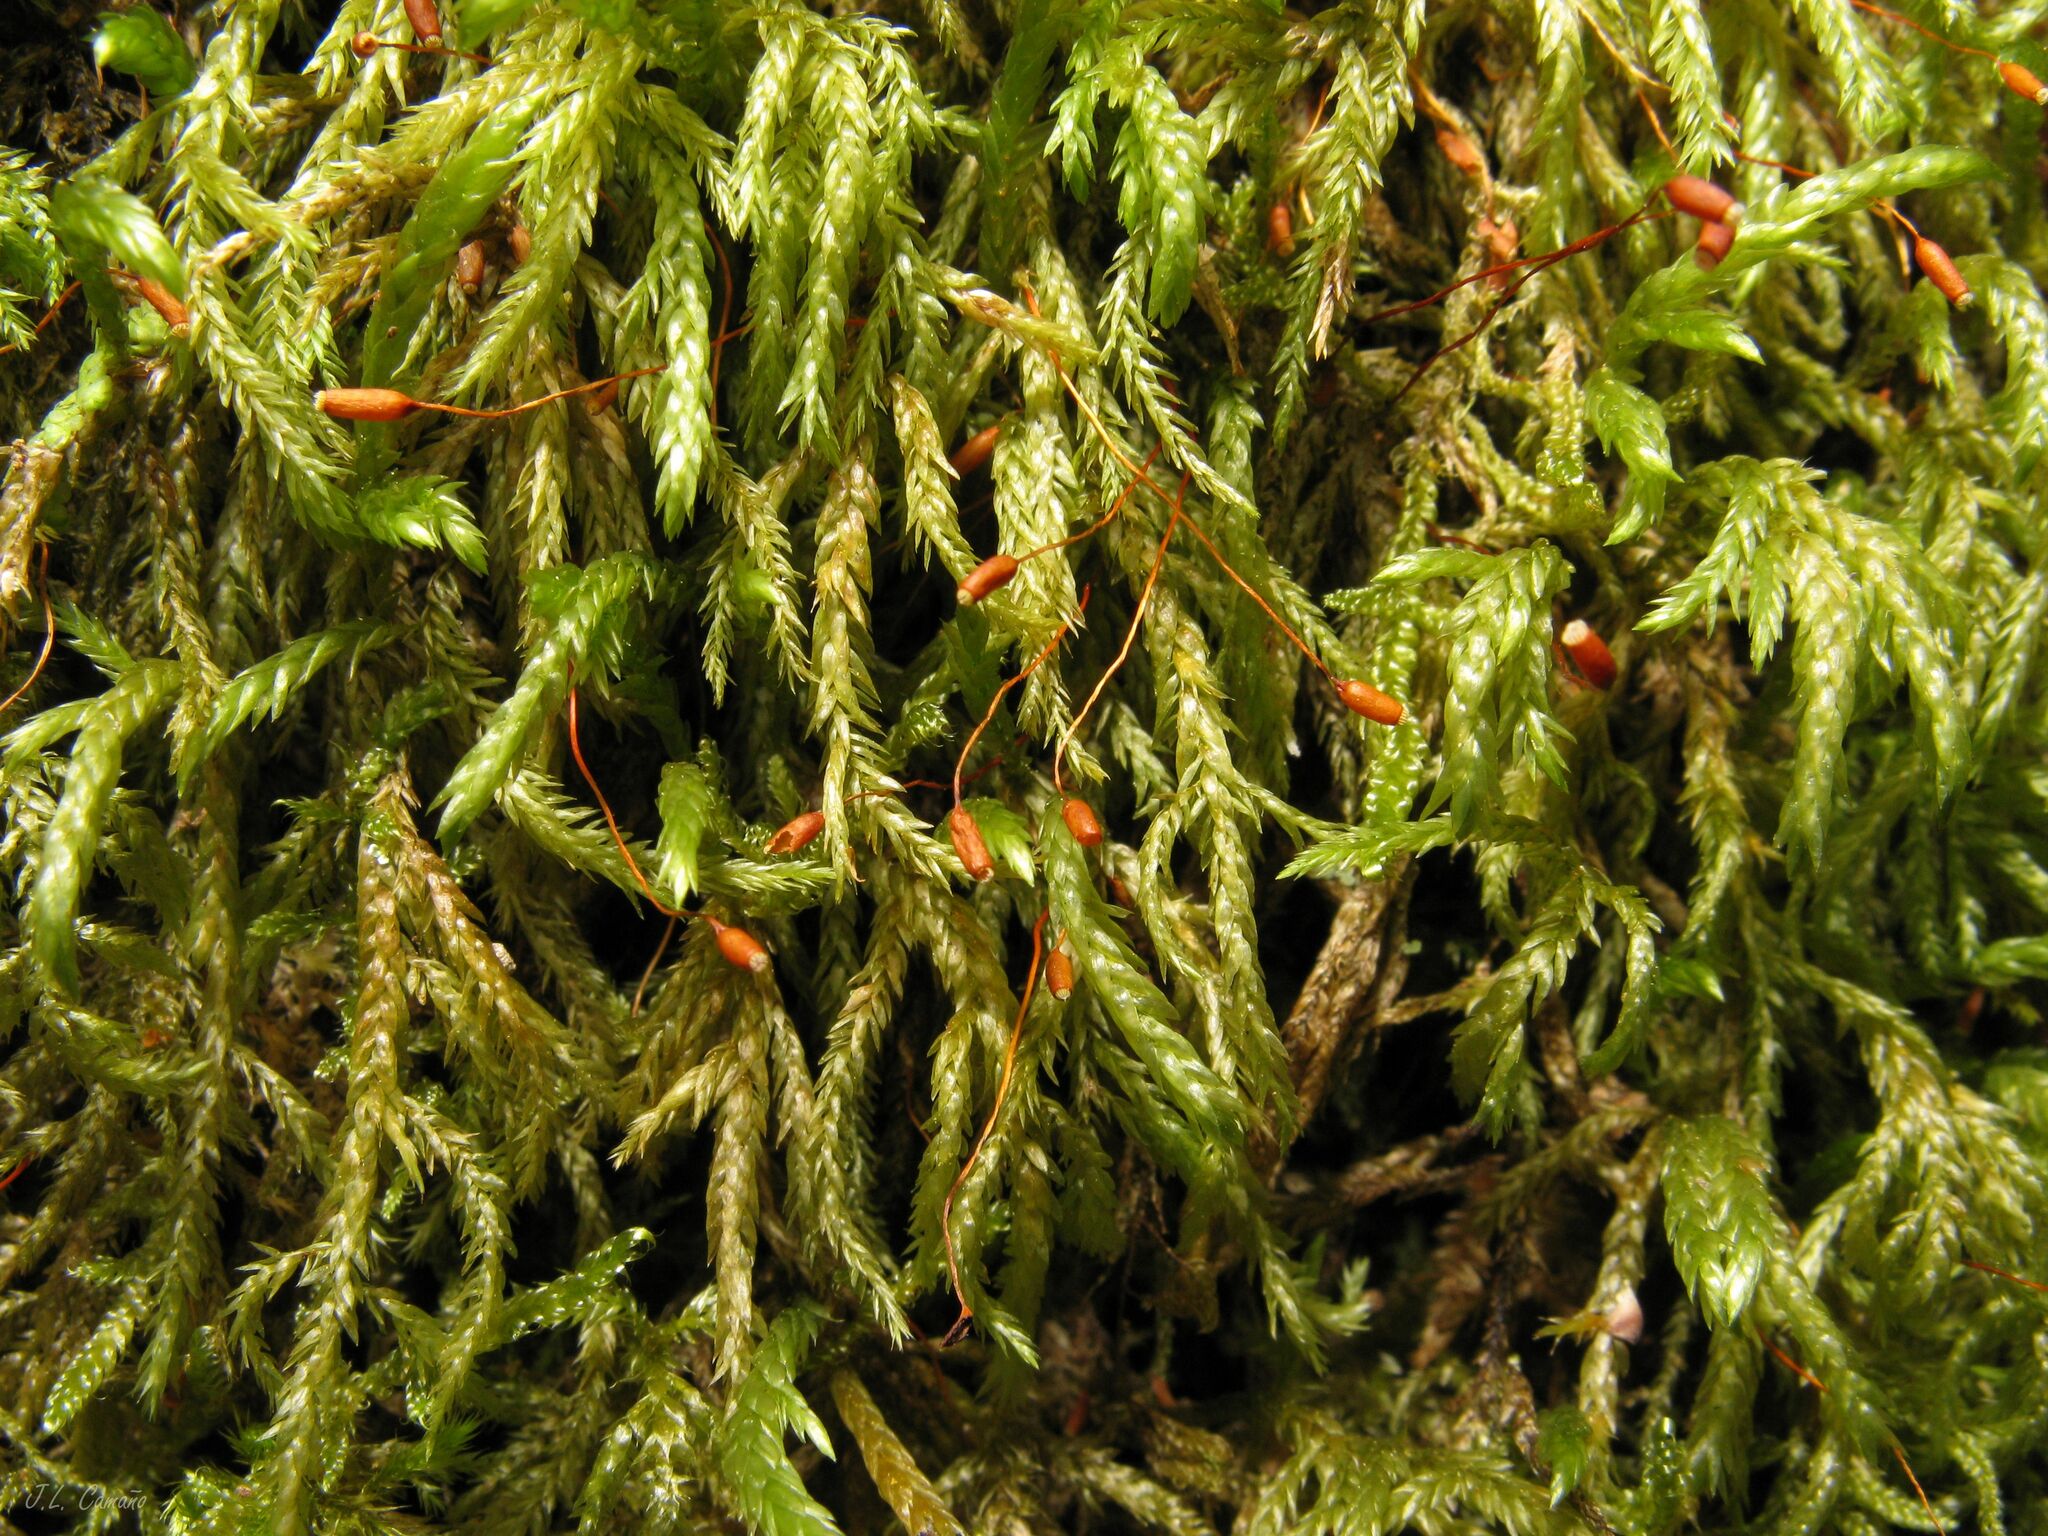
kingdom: Plantae
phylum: Bryophyta
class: Bryopsida
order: Hypnales
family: Lembophyllaceae
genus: Pseudisothecium
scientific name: Pseudisothecium myosuroides
